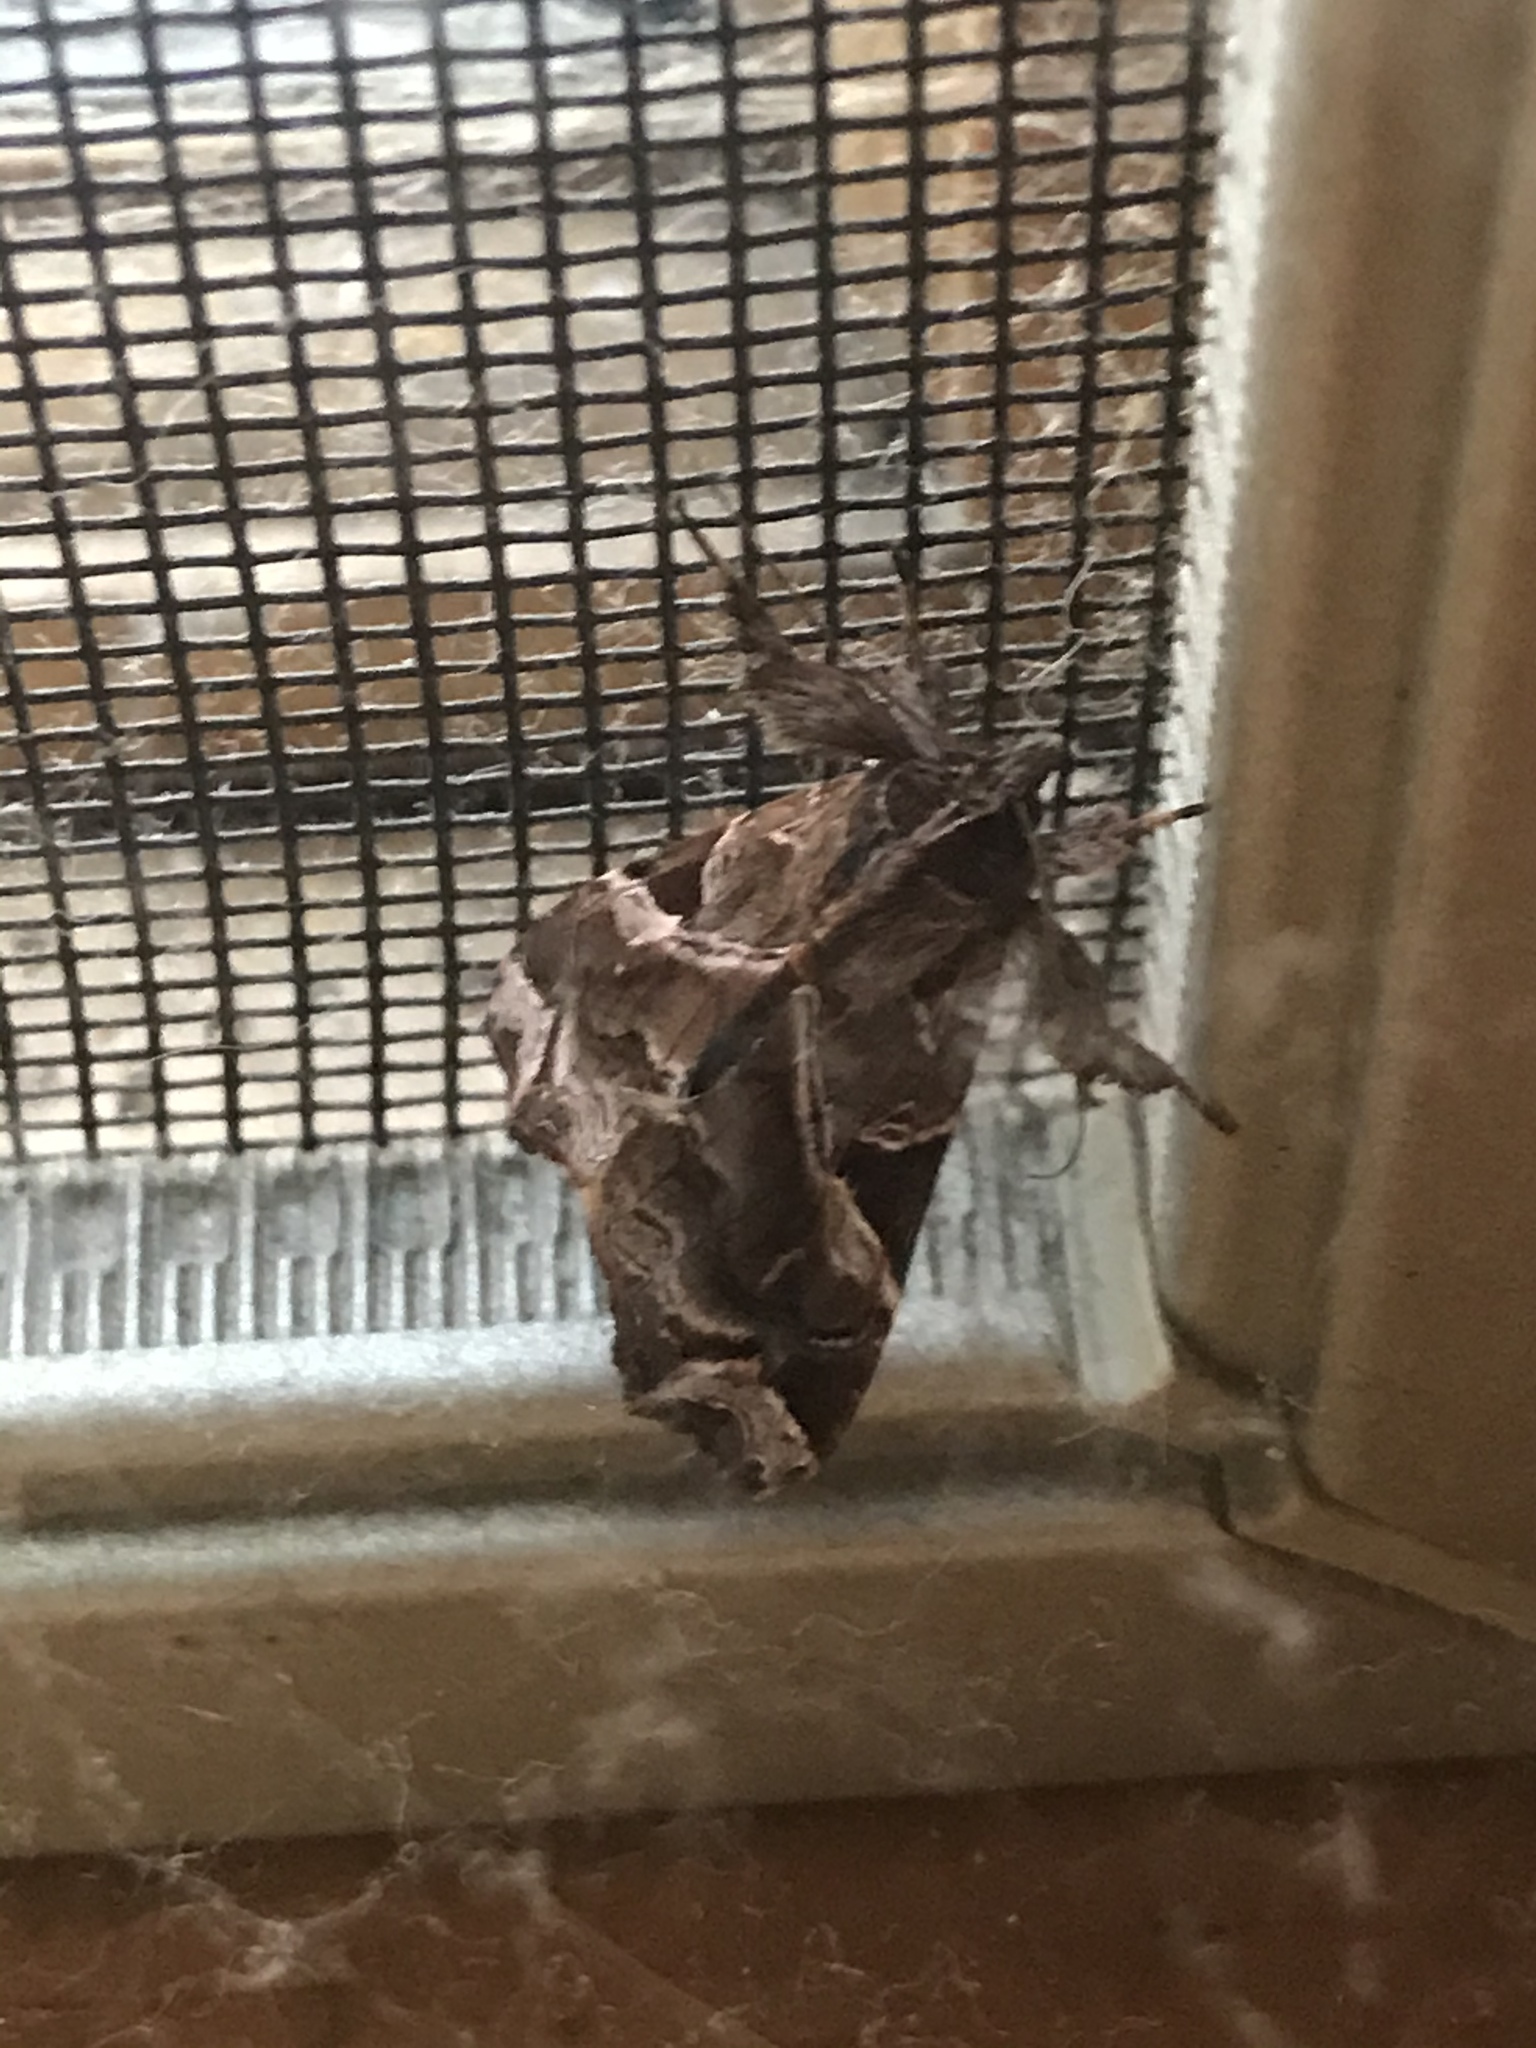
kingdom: Animalia
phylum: Arthropoda
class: Insecta
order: Lepidoptera
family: Noctuidae
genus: Callopistria
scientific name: Callopistria floridensis
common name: Florida fern moth
